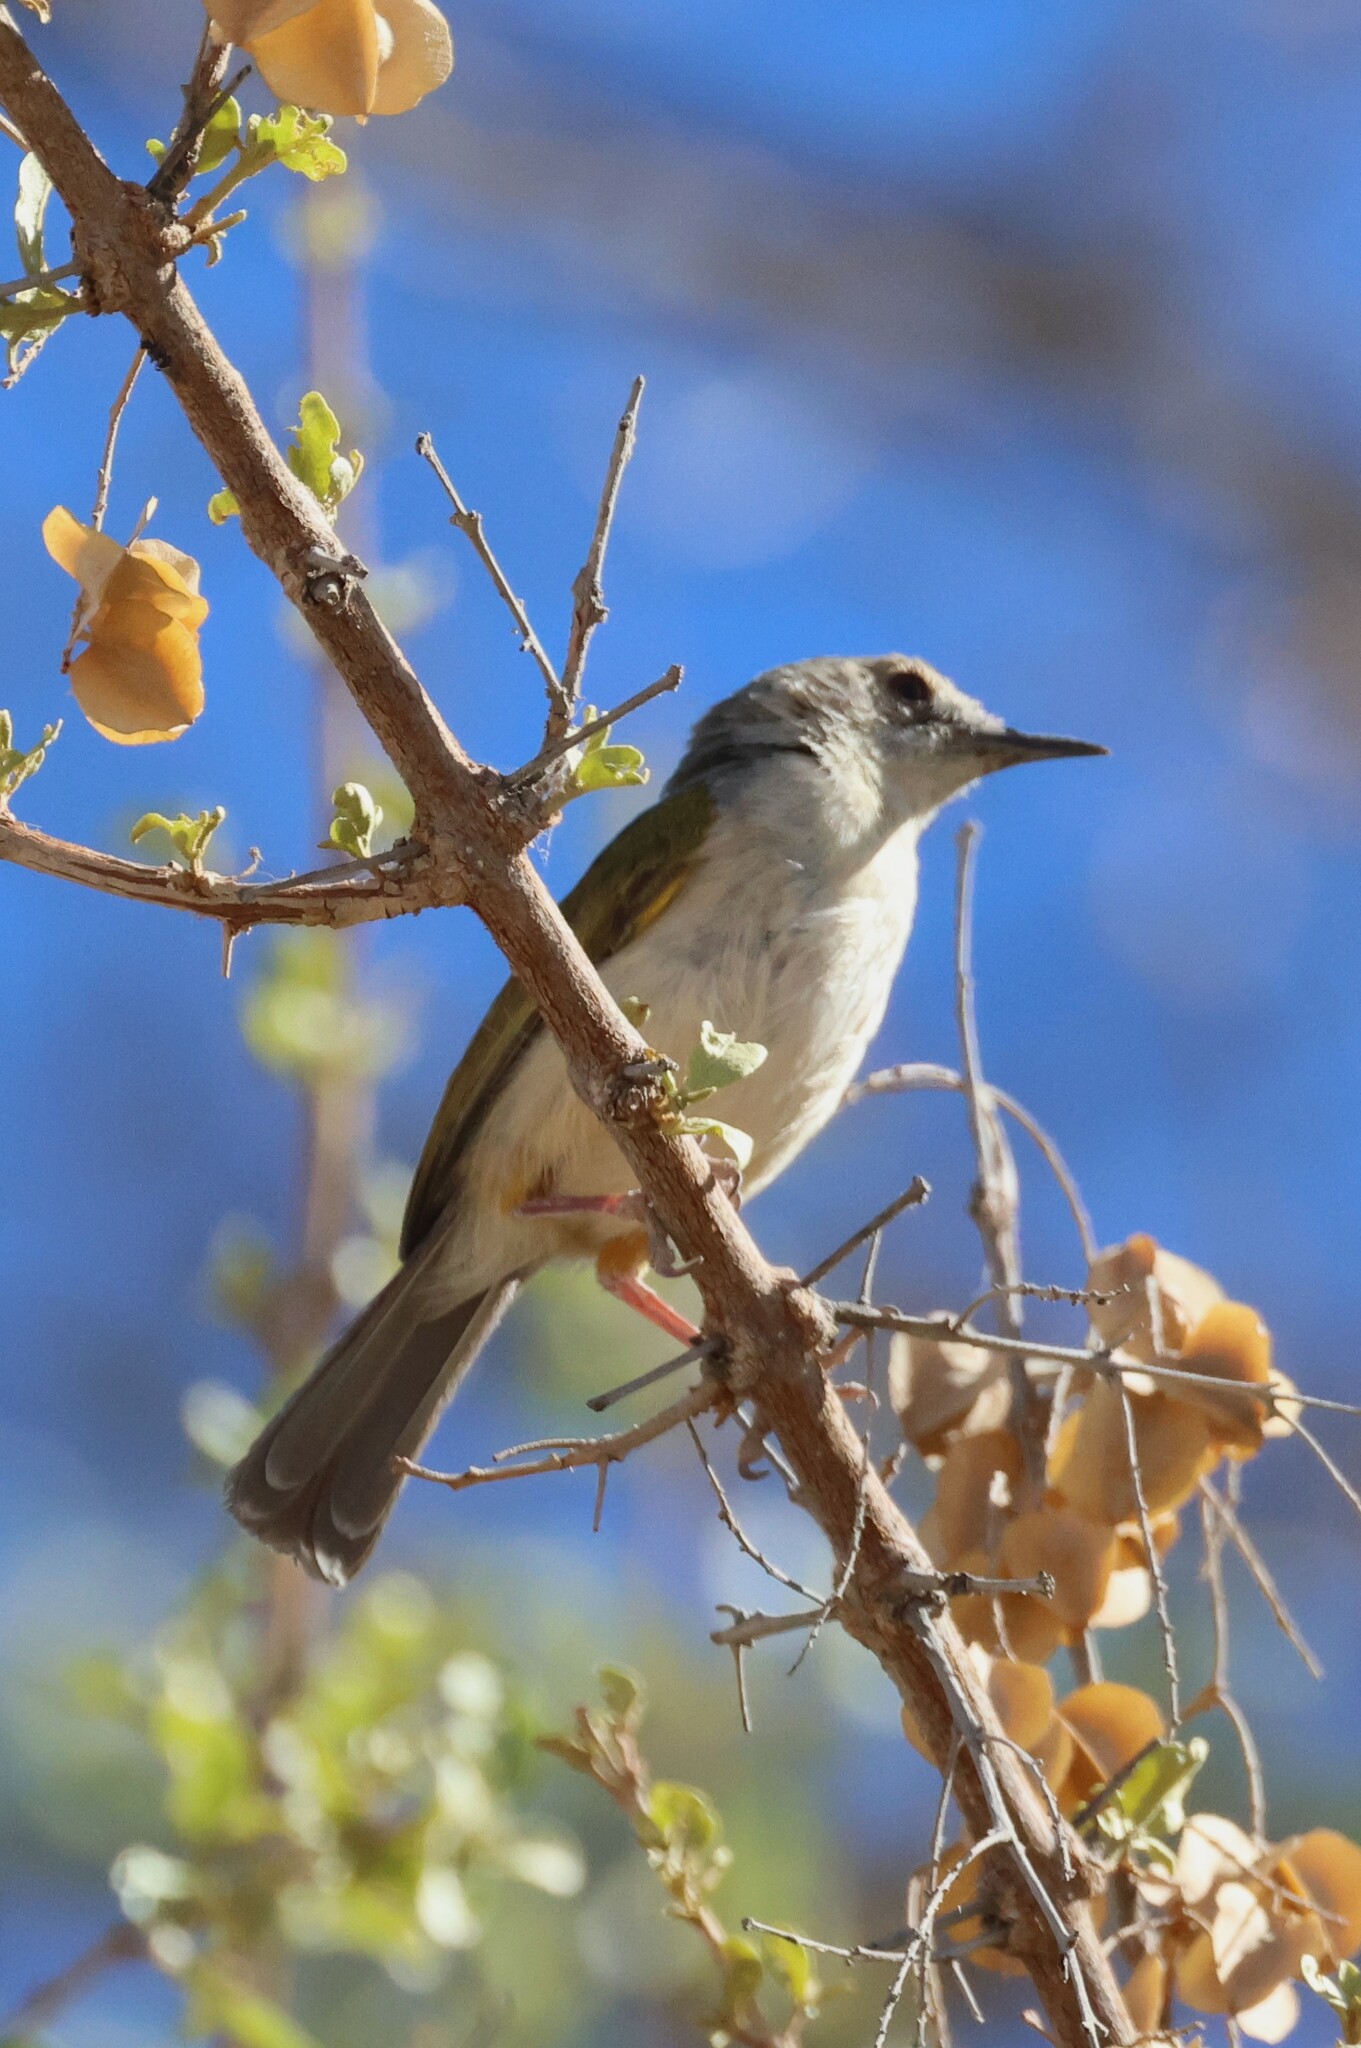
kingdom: Animalia
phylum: Chordata
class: Aves
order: Passeriformes
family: Cisticolidae
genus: Camaroptera
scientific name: Camaroptera brachyura
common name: Green-backed camaroptera
